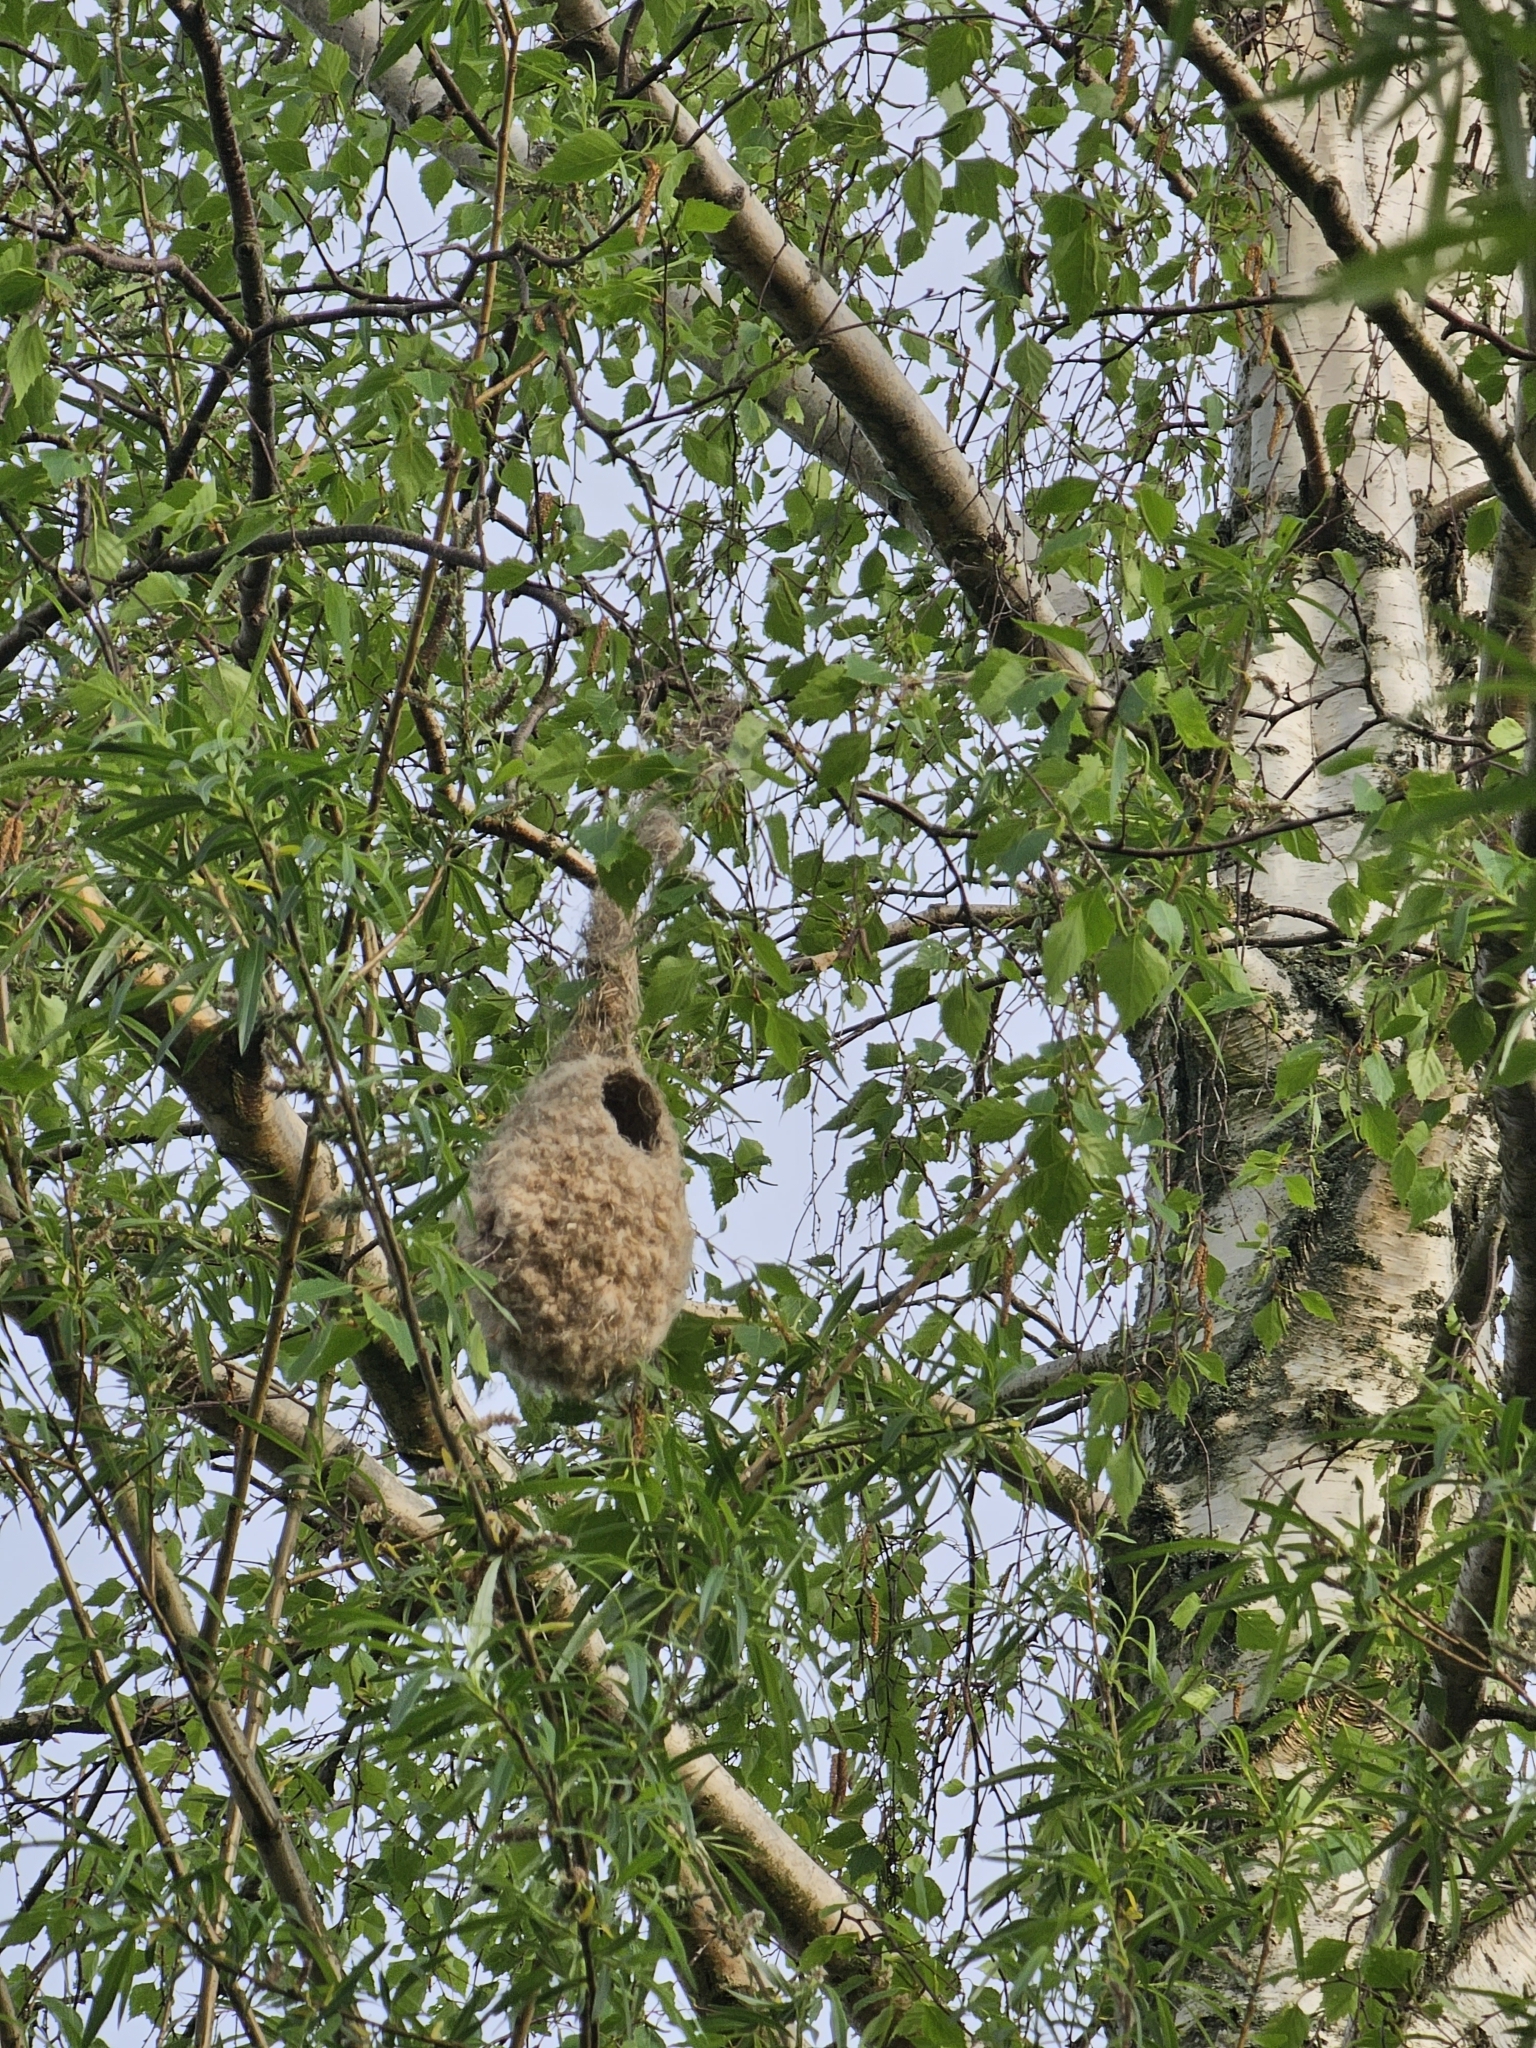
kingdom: Animalia
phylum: Chordata
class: Aves
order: Passeriformes
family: Remizidae
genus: Remiz
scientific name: Remiz pendulinus
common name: Eurasian penduline tit
